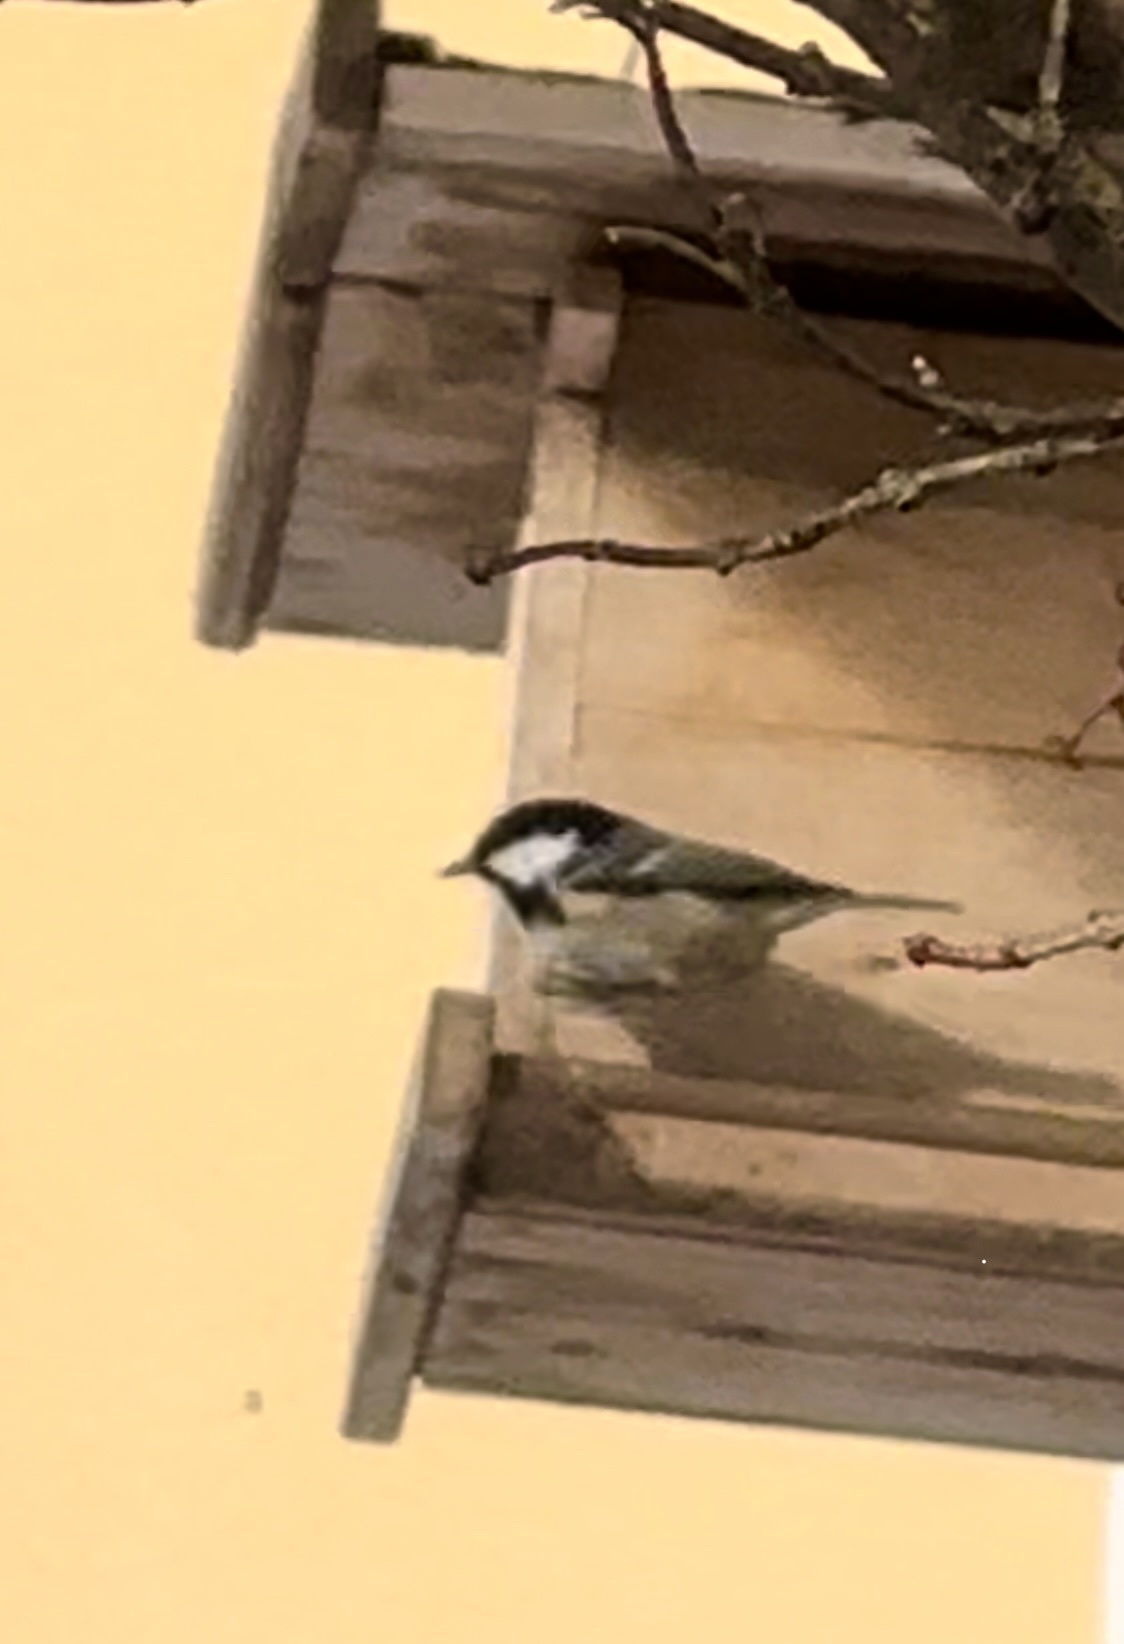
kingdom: Animalia
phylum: Chordata
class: Aves
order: Passeriformes
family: Paridae
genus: Periparus
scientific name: Periparus ater
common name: Coal tit
